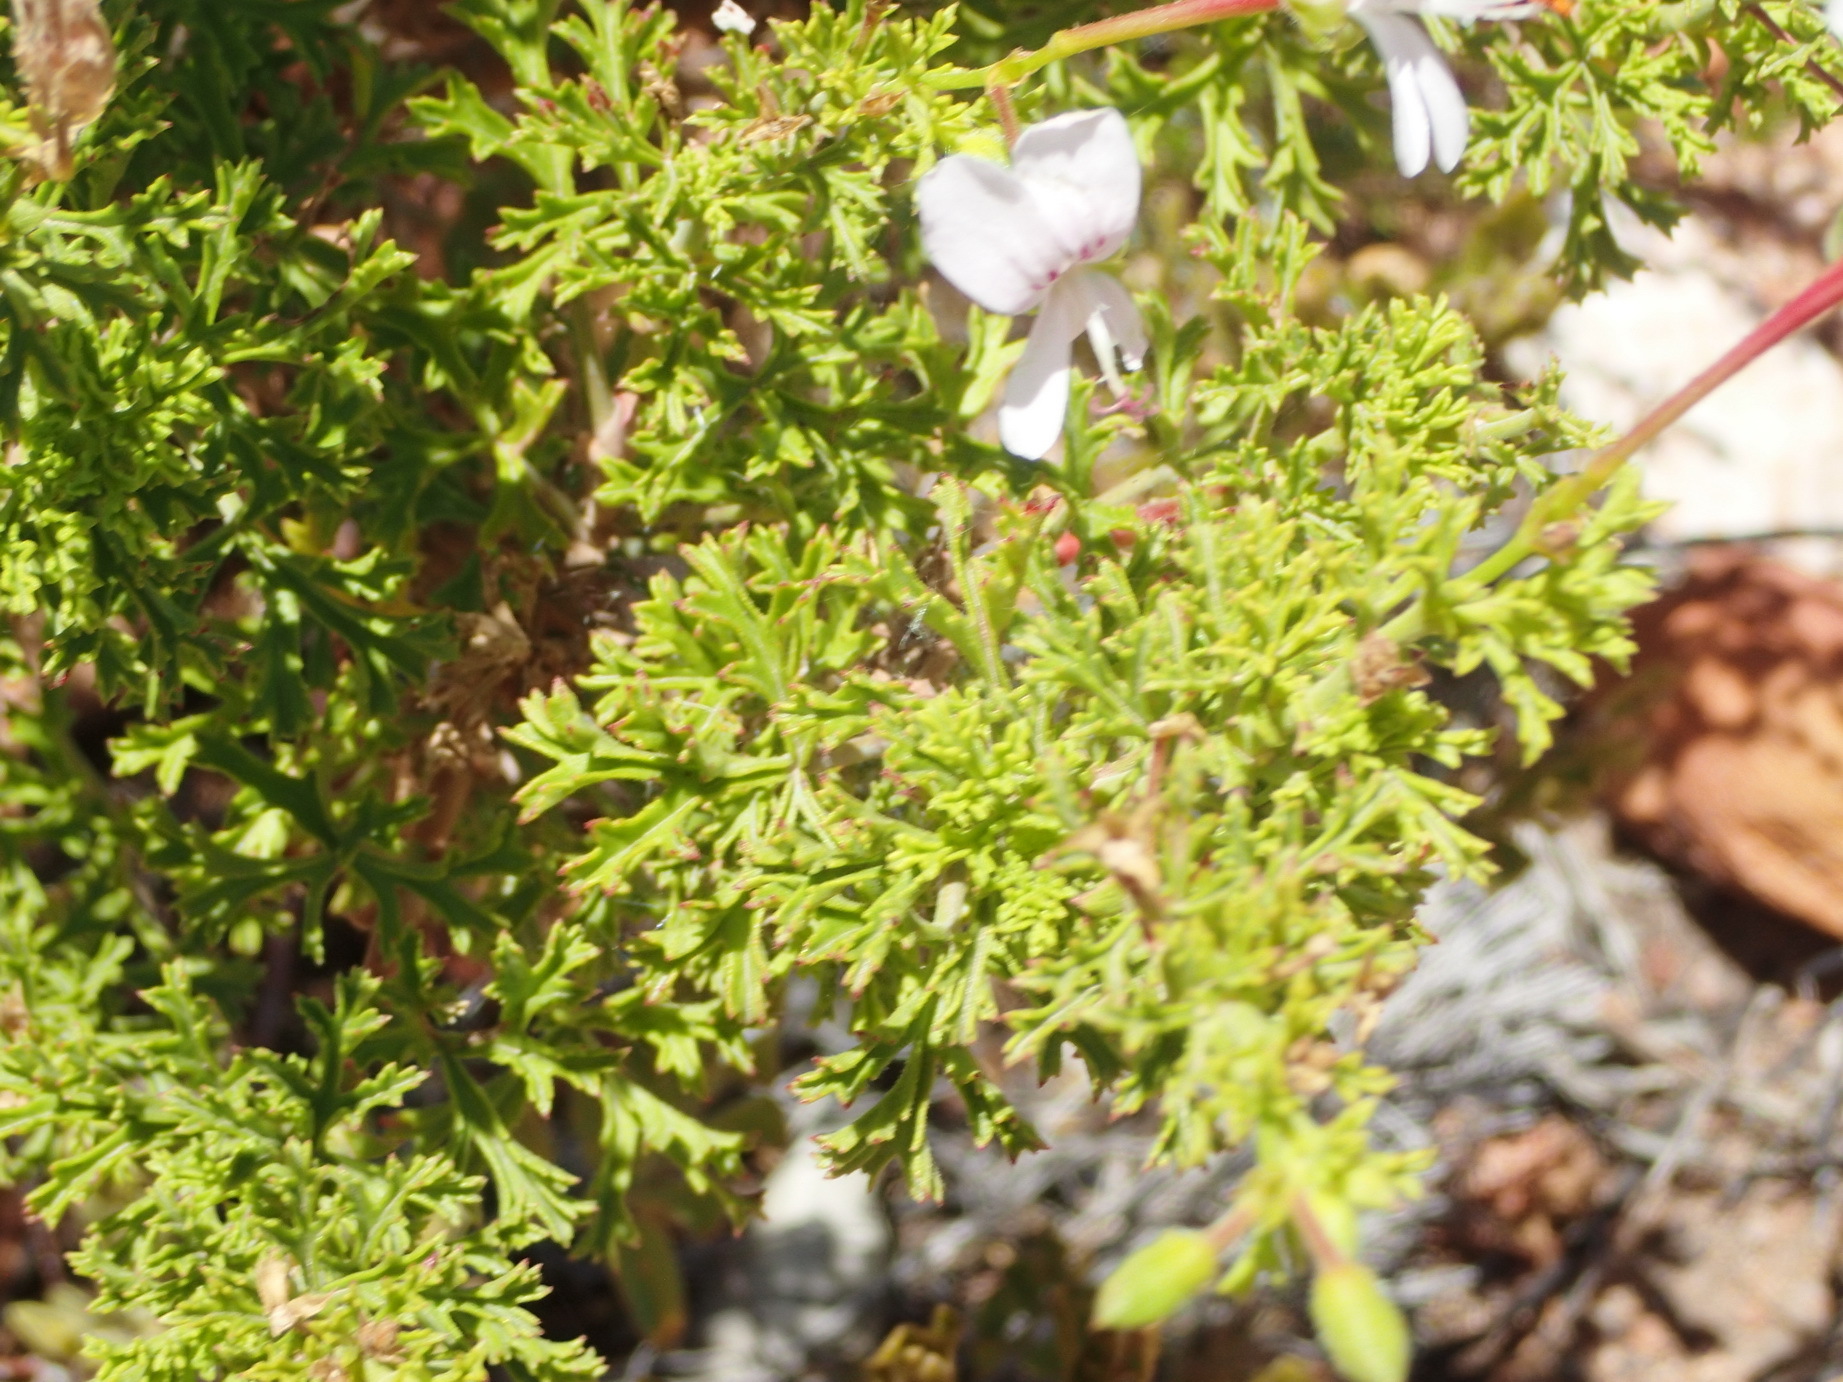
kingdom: Plantae
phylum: Tracheophyta
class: Magnoliopsida
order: Geraniales
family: Geraniaceae
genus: Pelargonium
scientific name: Pelargonium ternatum
